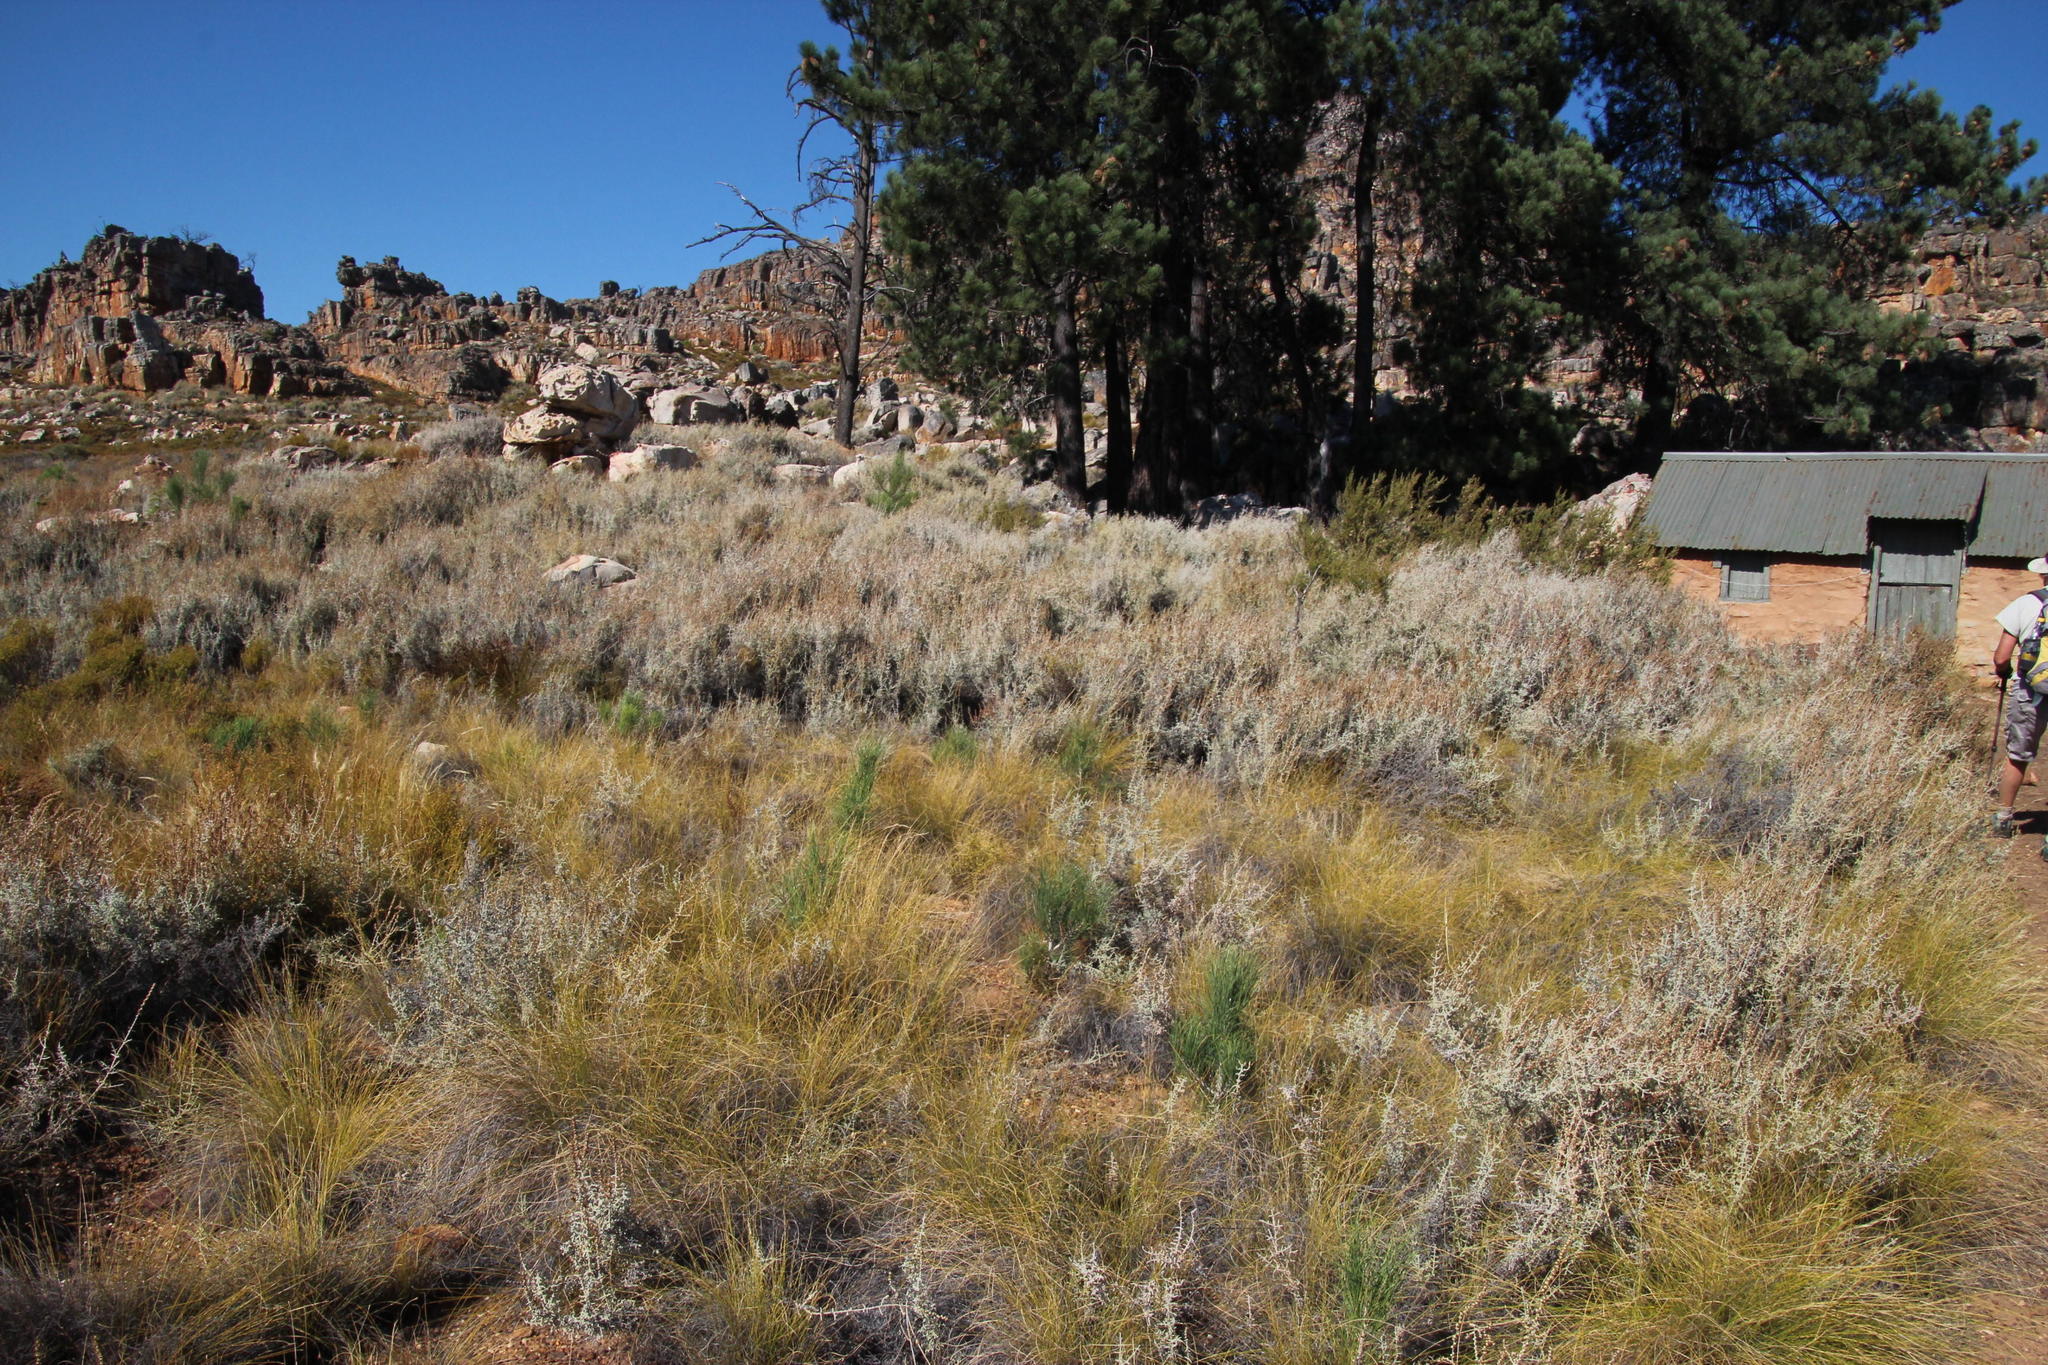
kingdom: Plantae
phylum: Tracheophyta
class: Pinopsida
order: Pinales
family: Pinaceae
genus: Pinus
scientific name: Pinus coulteri
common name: Coulter pine
